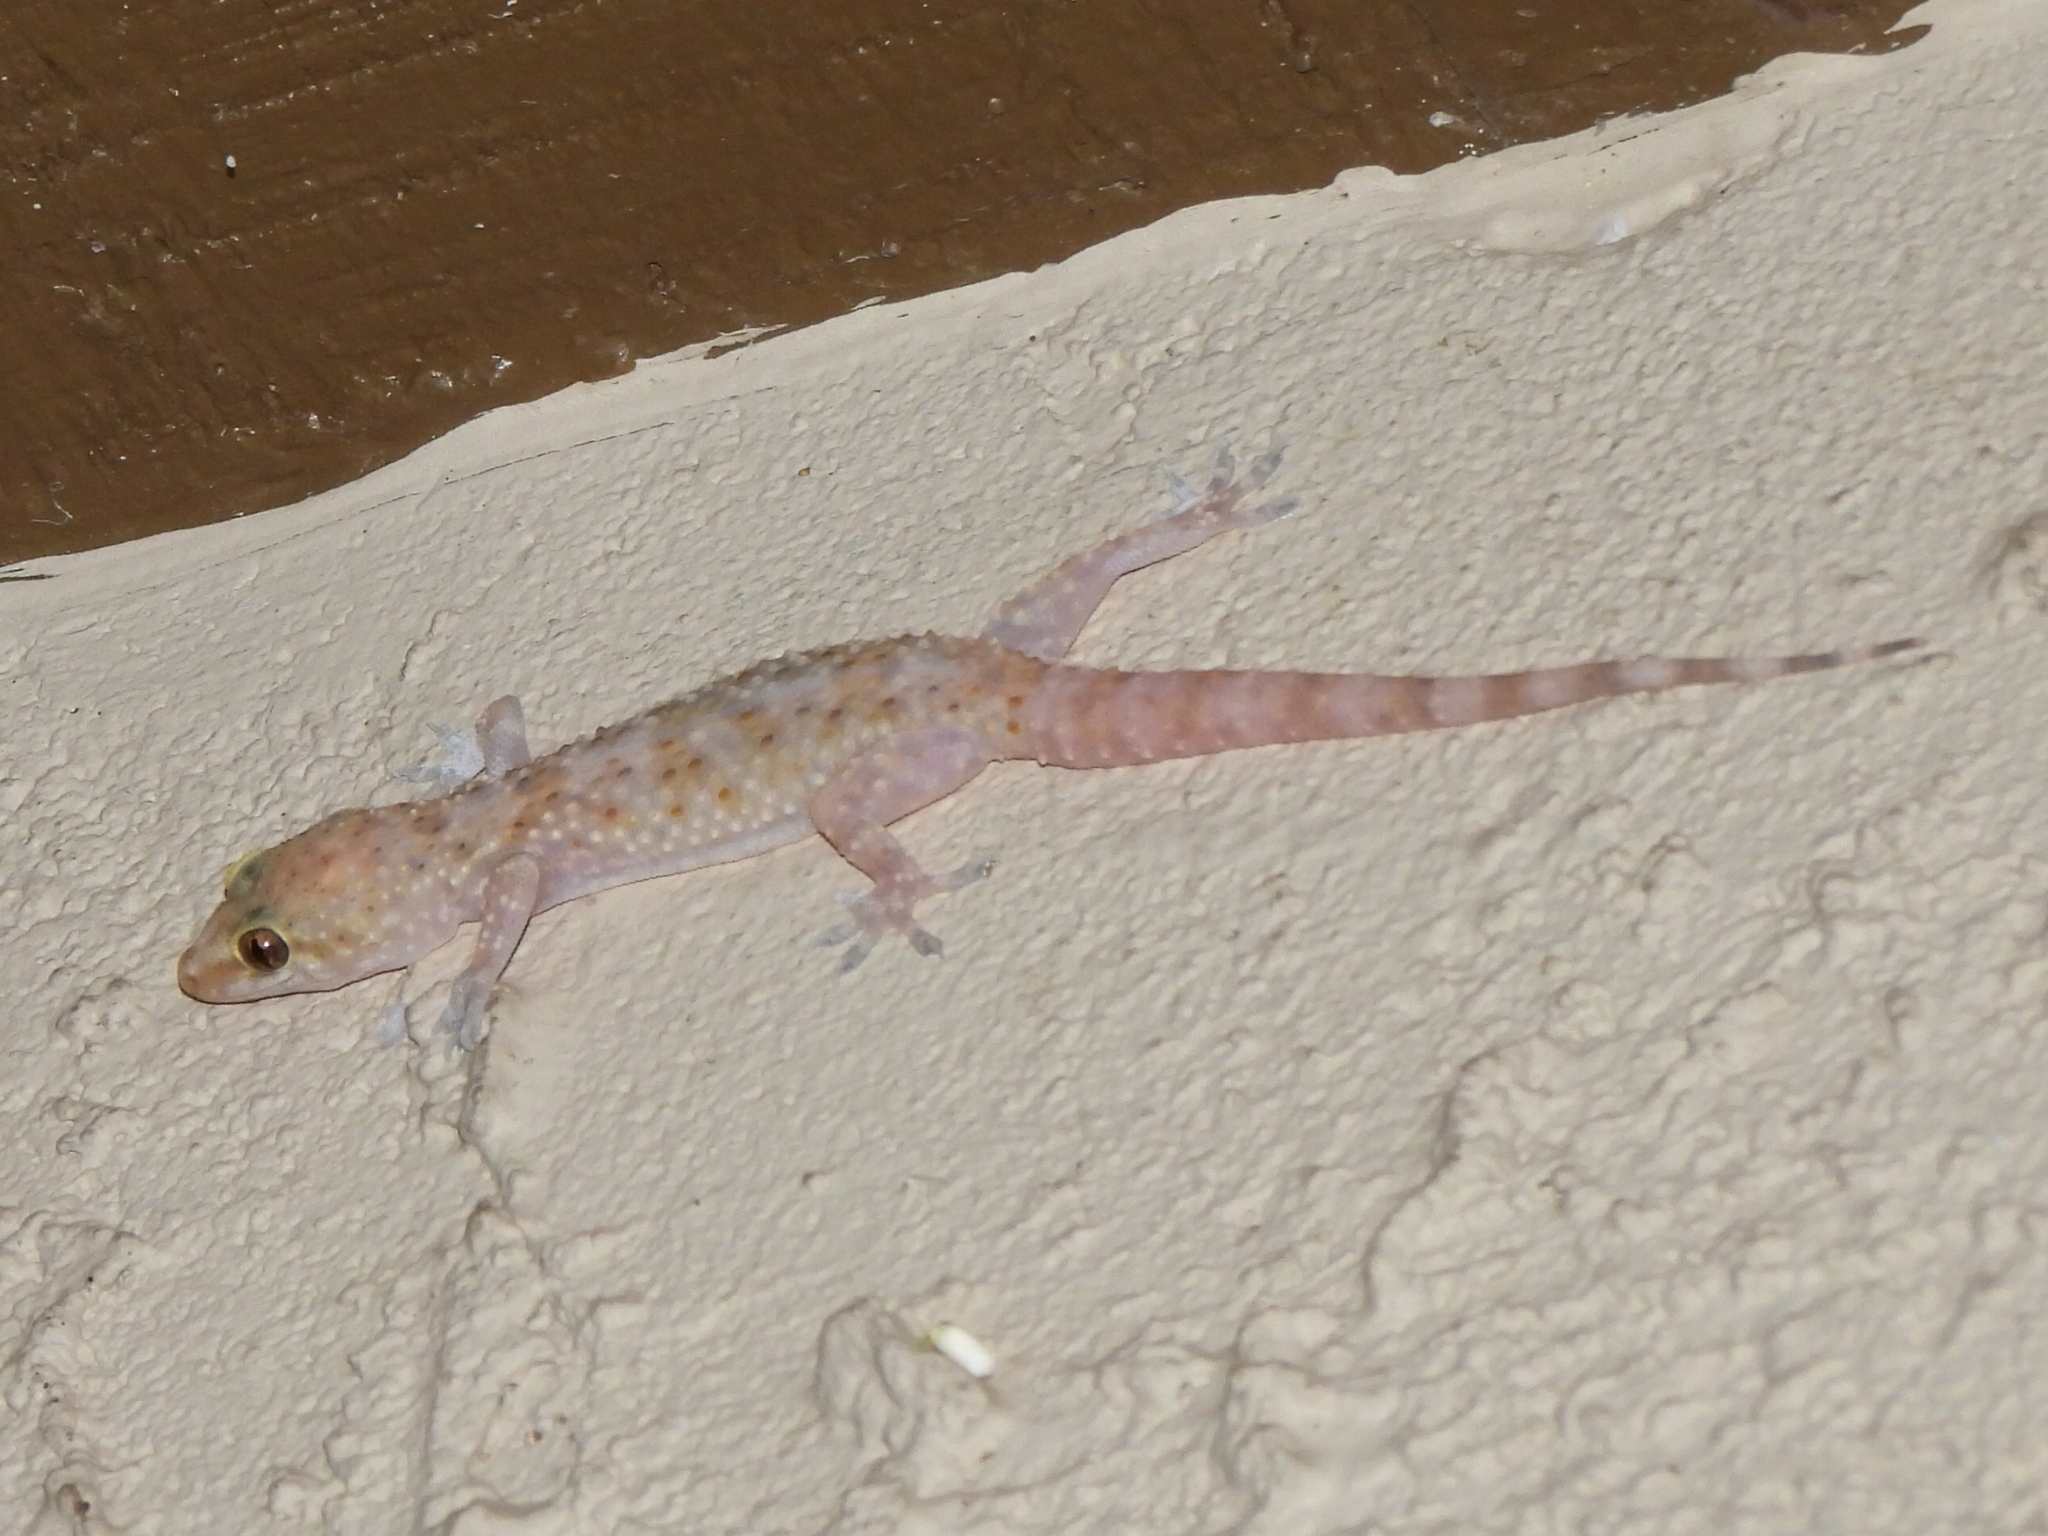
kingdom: Animalia
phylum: Chordata
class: Squamata
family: Gekkonidae
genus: Hemidactylus
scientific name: Hemidactylus turcicus
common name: Turkish gecko
